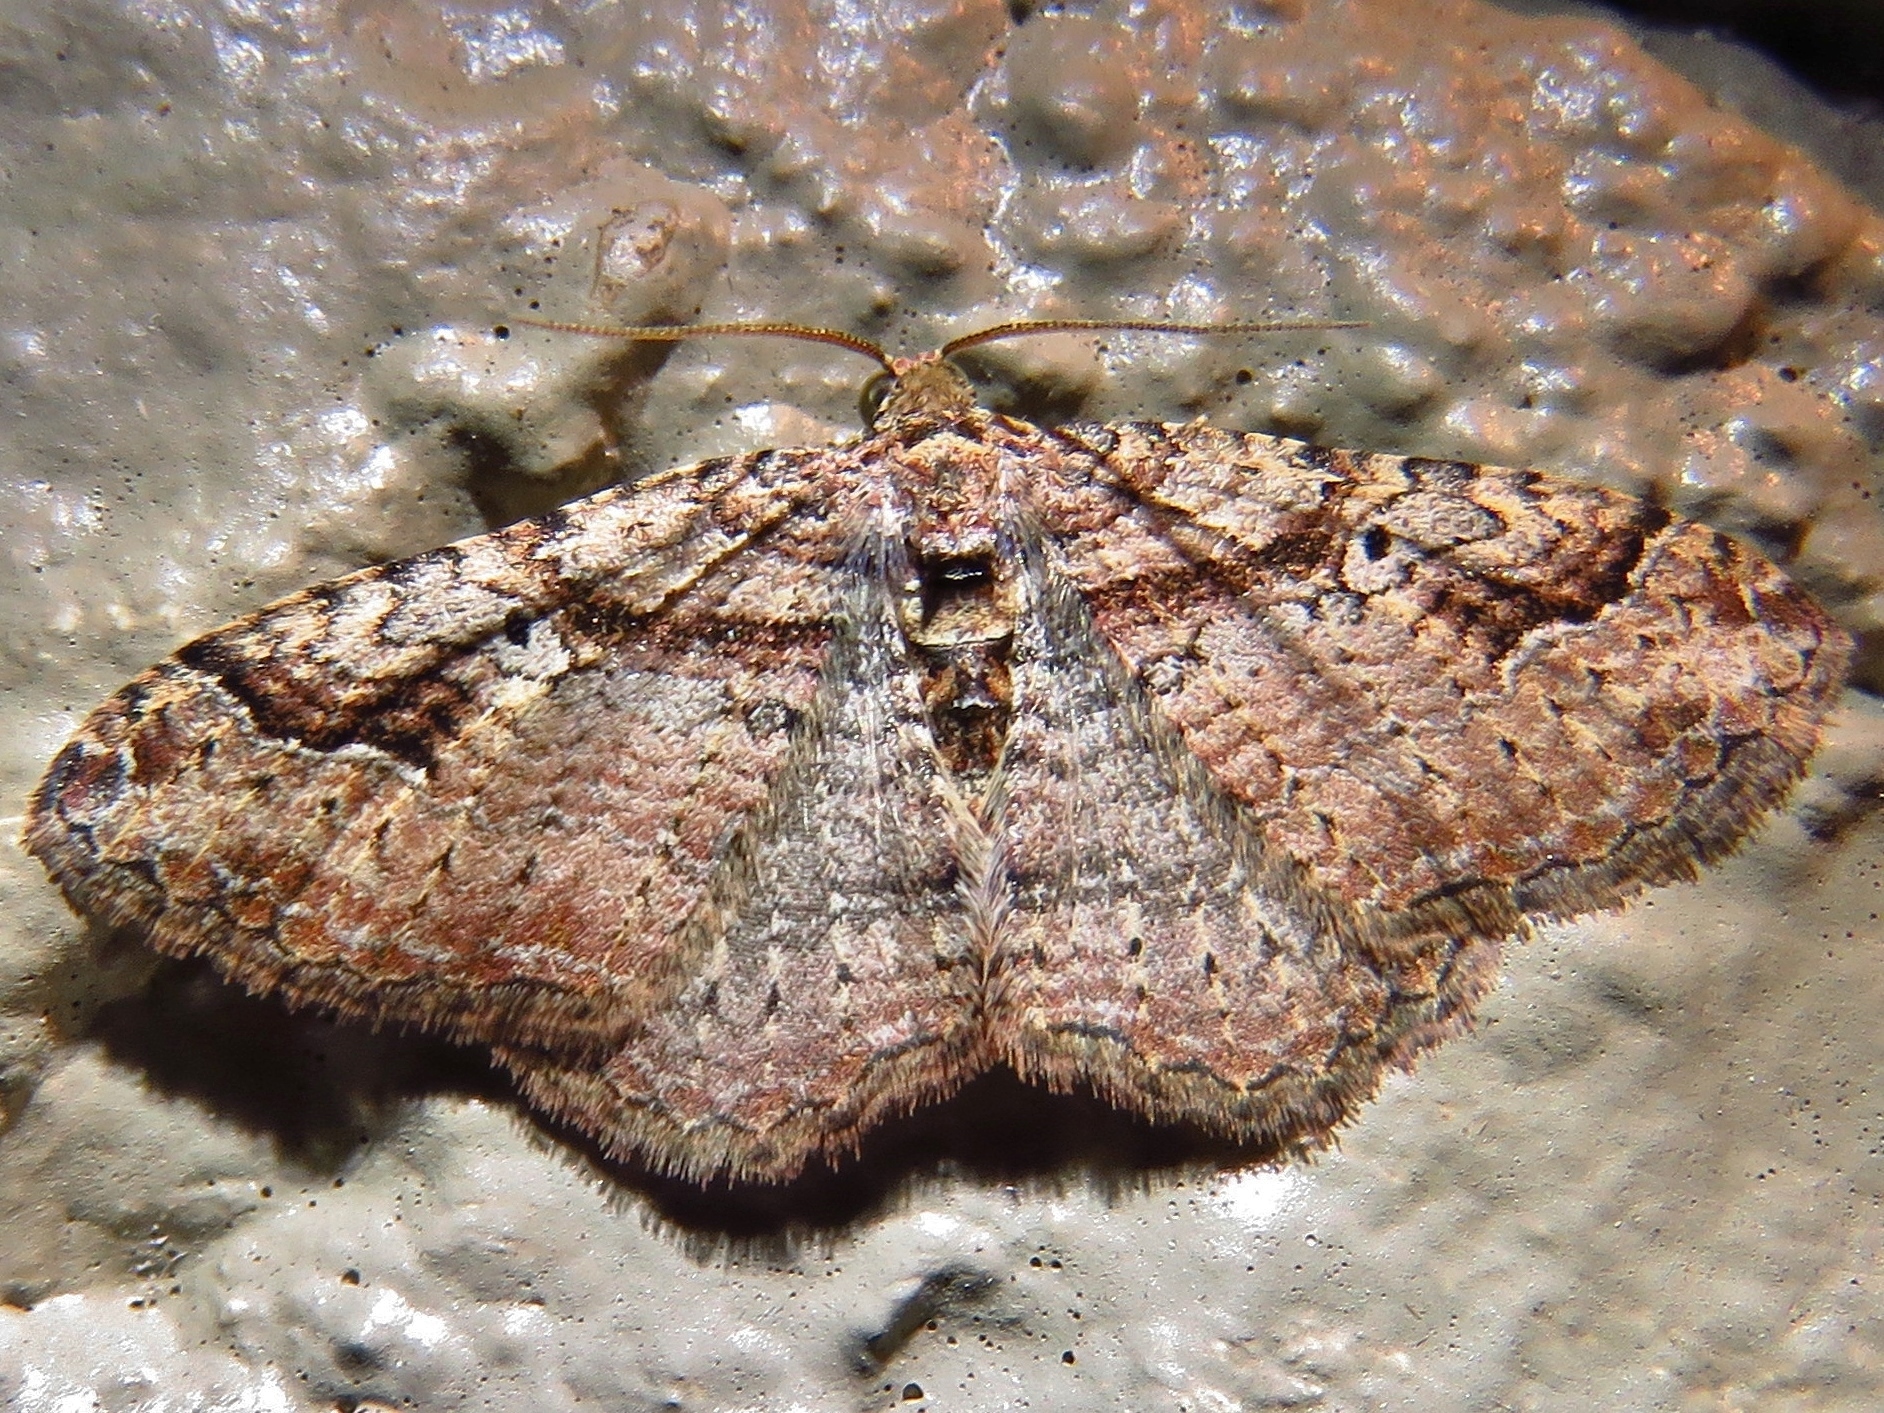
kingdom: Animalia
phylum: Arthropoda
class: Insecta
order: Lepidoptera
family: Geometridae
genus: Costaconvexa
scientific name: Costaconvexa centrostrigaria
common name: Bent-line carpet
